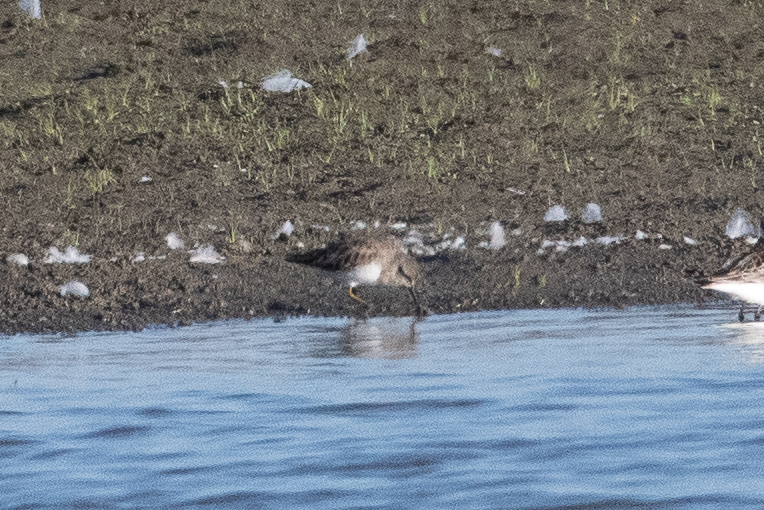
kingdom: Animalia
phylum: Chordata
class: Aves
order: Charadriiformes
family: Scolopacidae
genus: Calidris
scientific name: Calidris minutilla
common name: Least sandpiper
